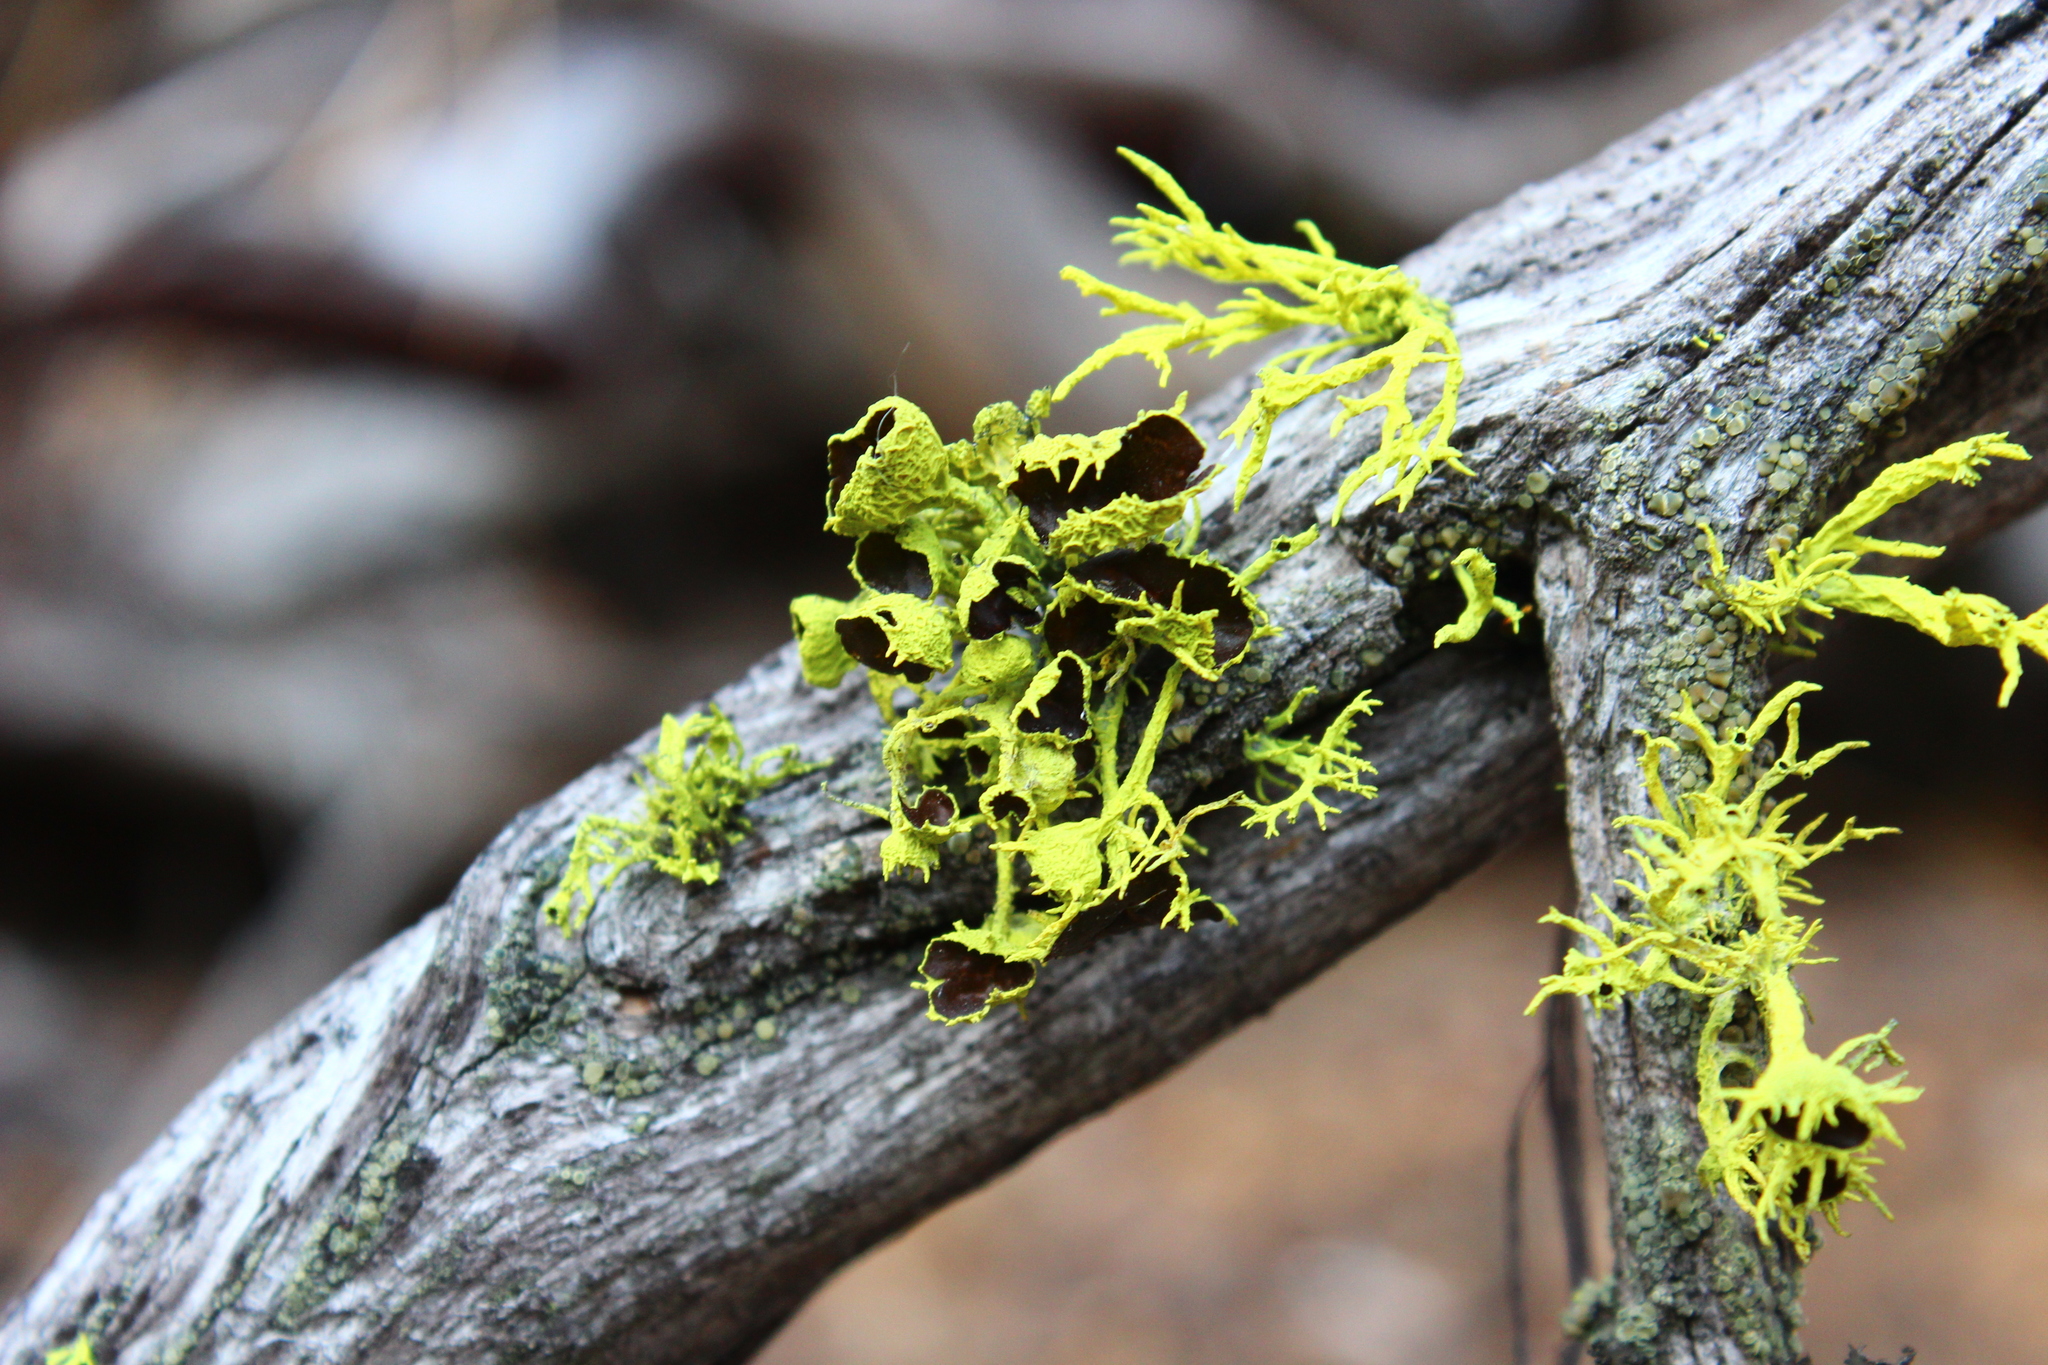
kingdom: Fungi
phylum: Ascomycota
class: Lecanoromycetes
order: Lecanorales
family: Parmeliaceae
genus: Letharia
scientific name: Letharia columbiana
